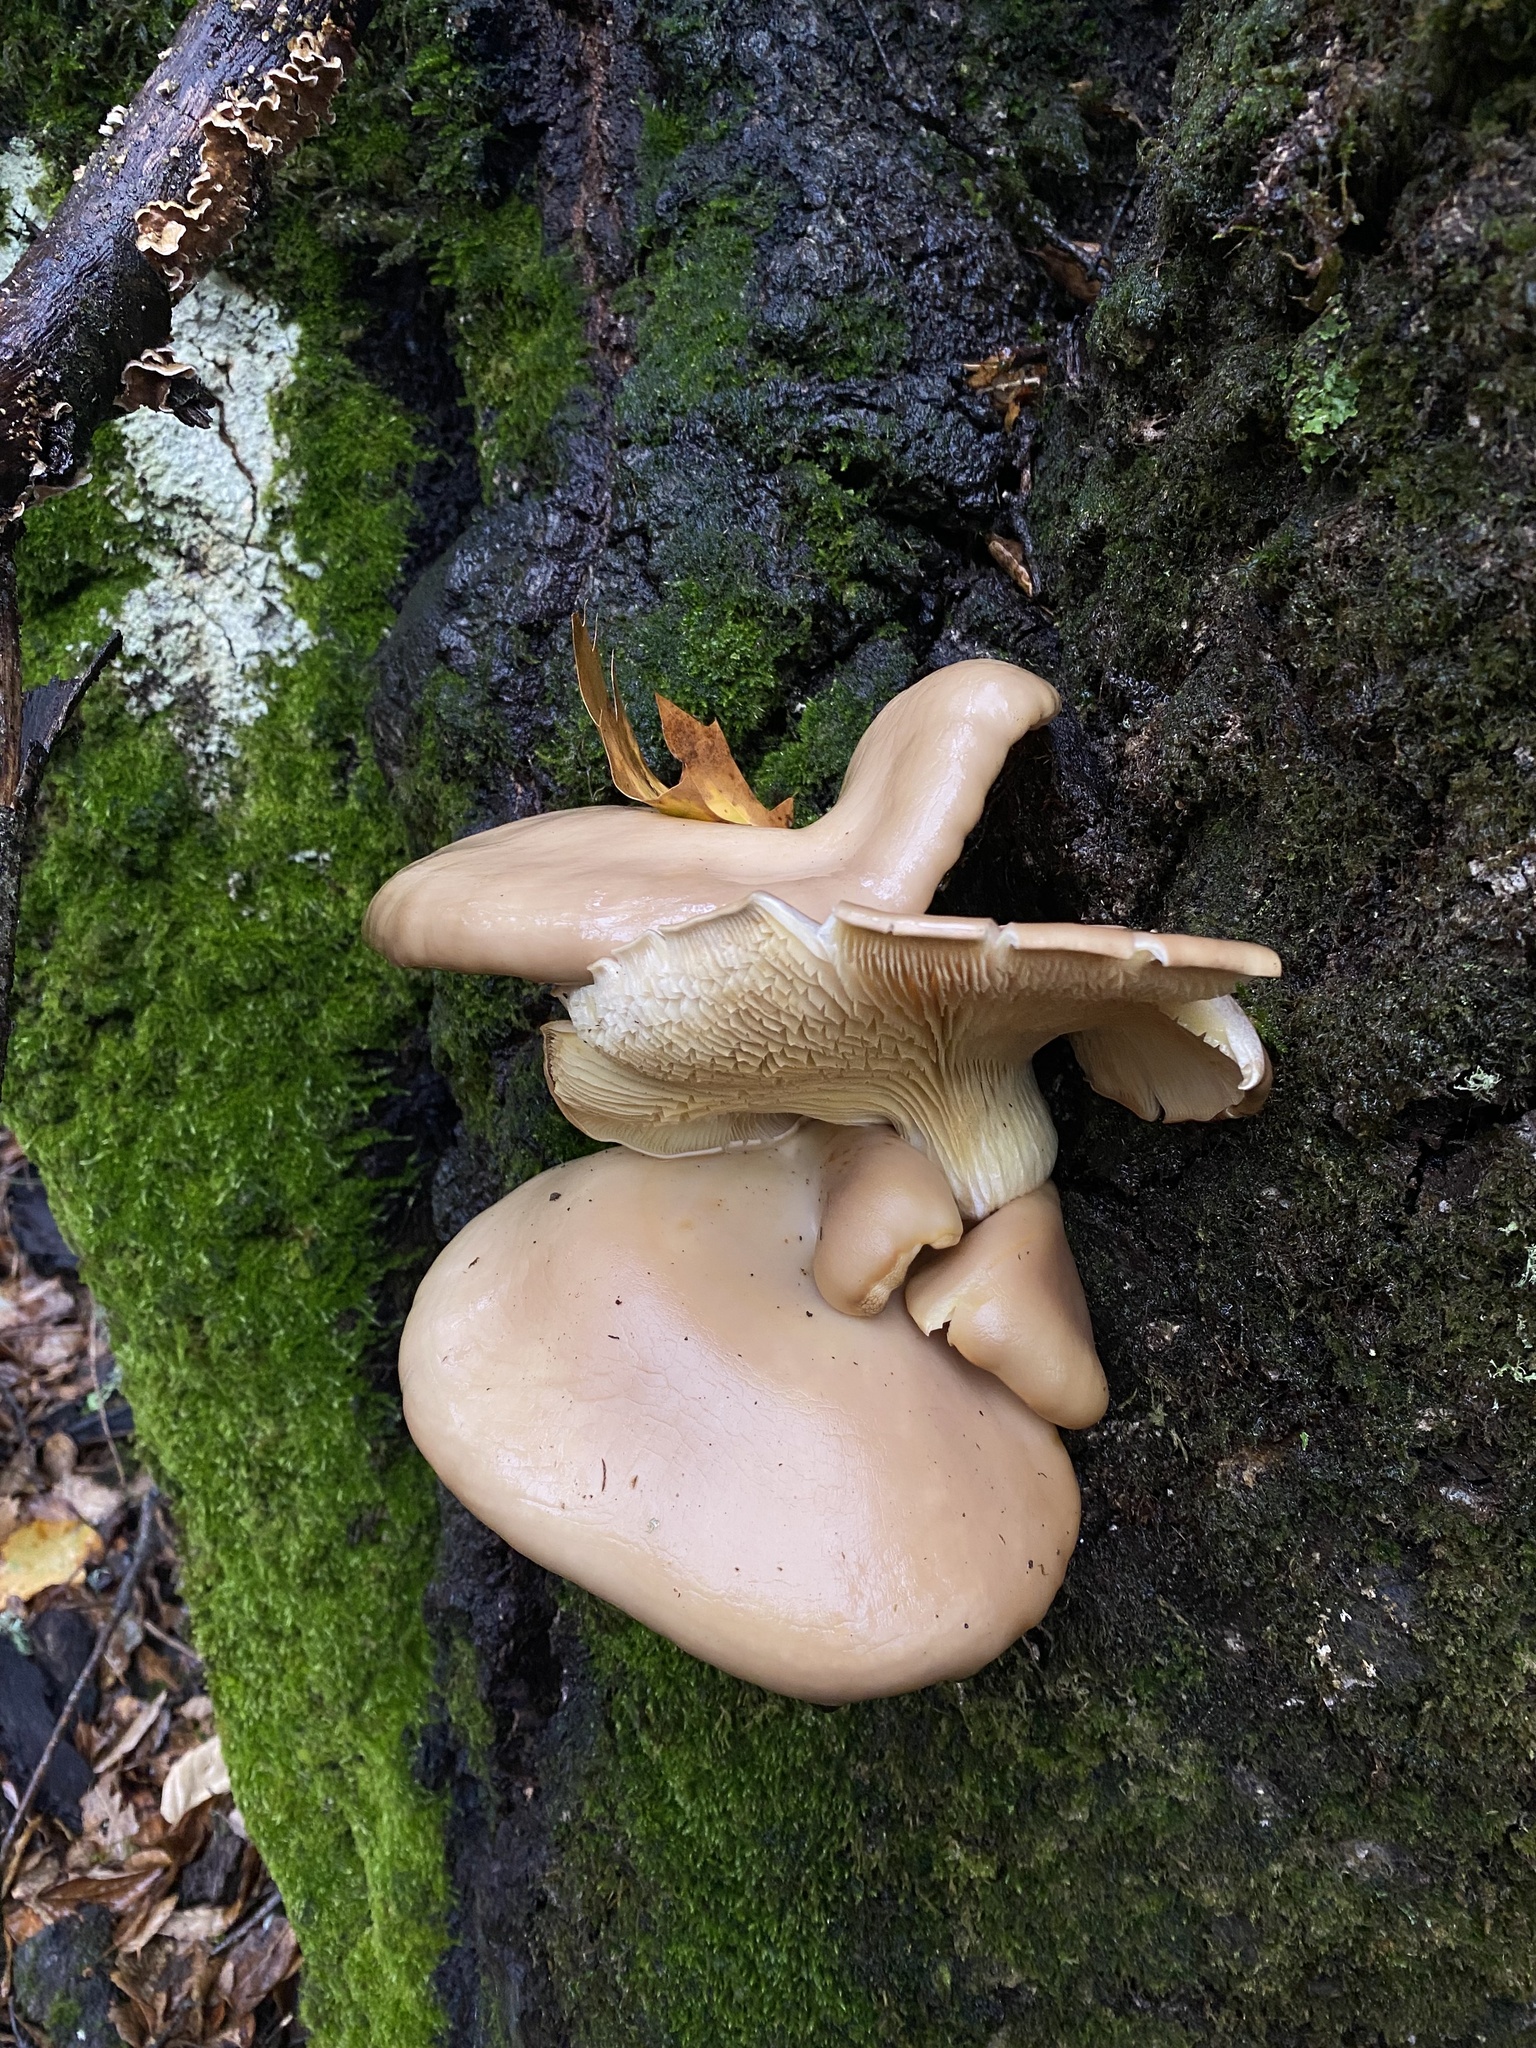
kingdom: Fungi
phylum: Basidiomycota
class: Agaricomycetes
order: Agaricales
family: Pleurotaceae
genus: Pleurotus
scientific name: Pleurotus ostreatus
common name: Oyster mushroom
